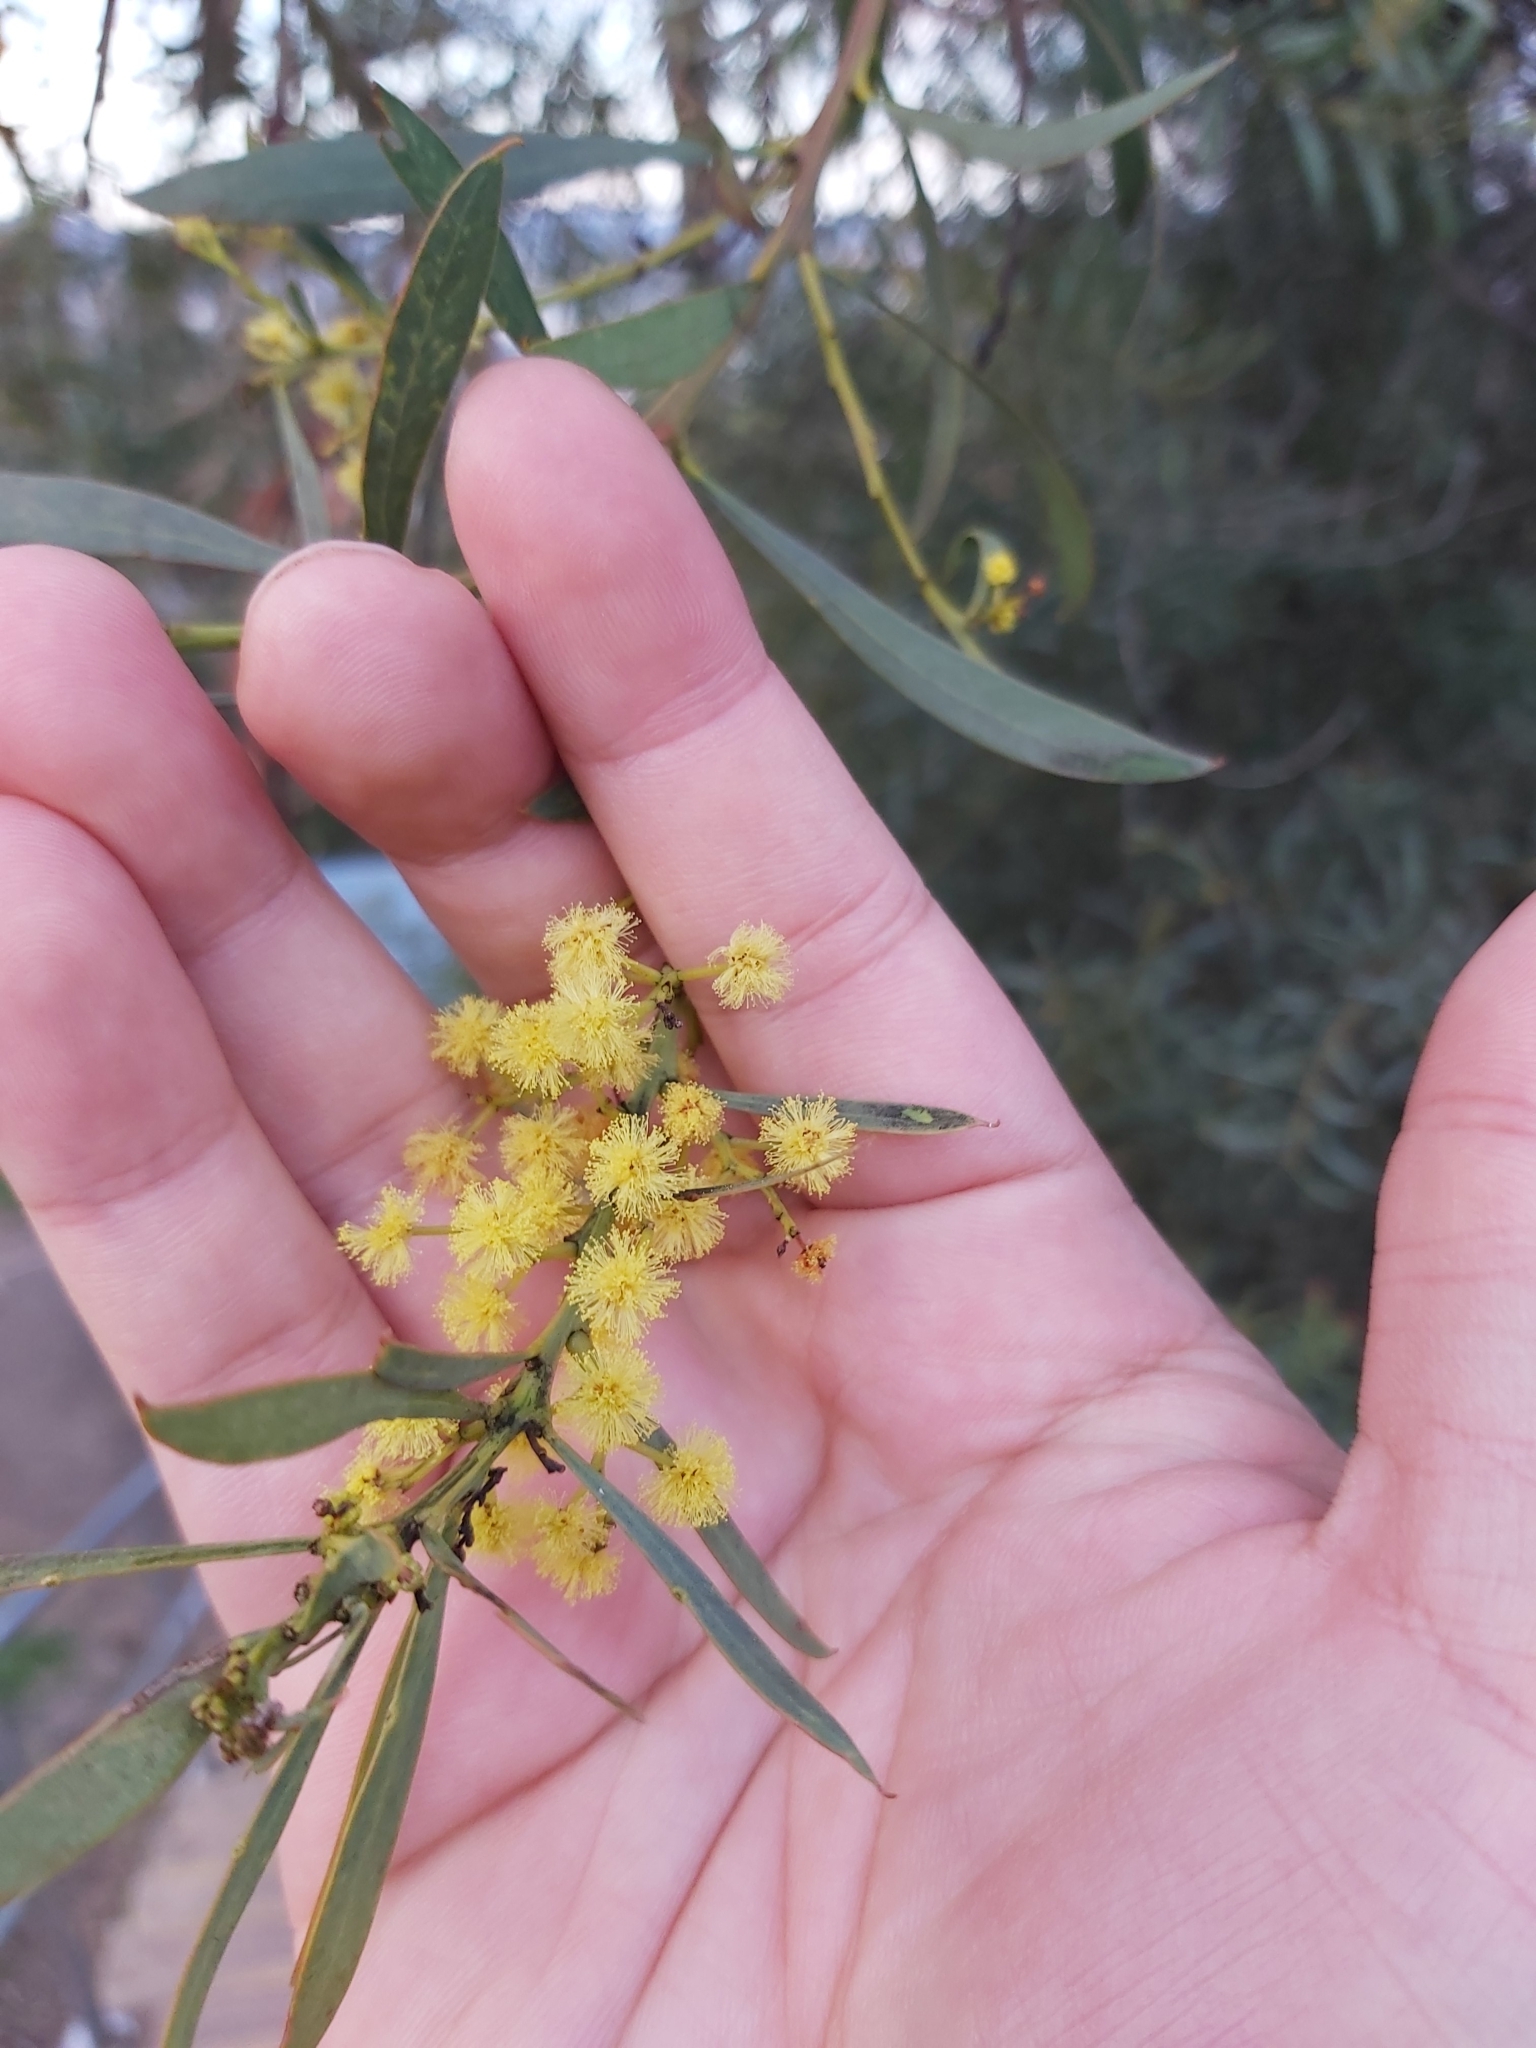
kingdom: Plantae
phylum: Tracheophyta
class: Magnoliopsida
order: Fabales
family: Fabaceae
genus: Acacia
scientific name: Acacia rubida
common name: Red leaf wattle
